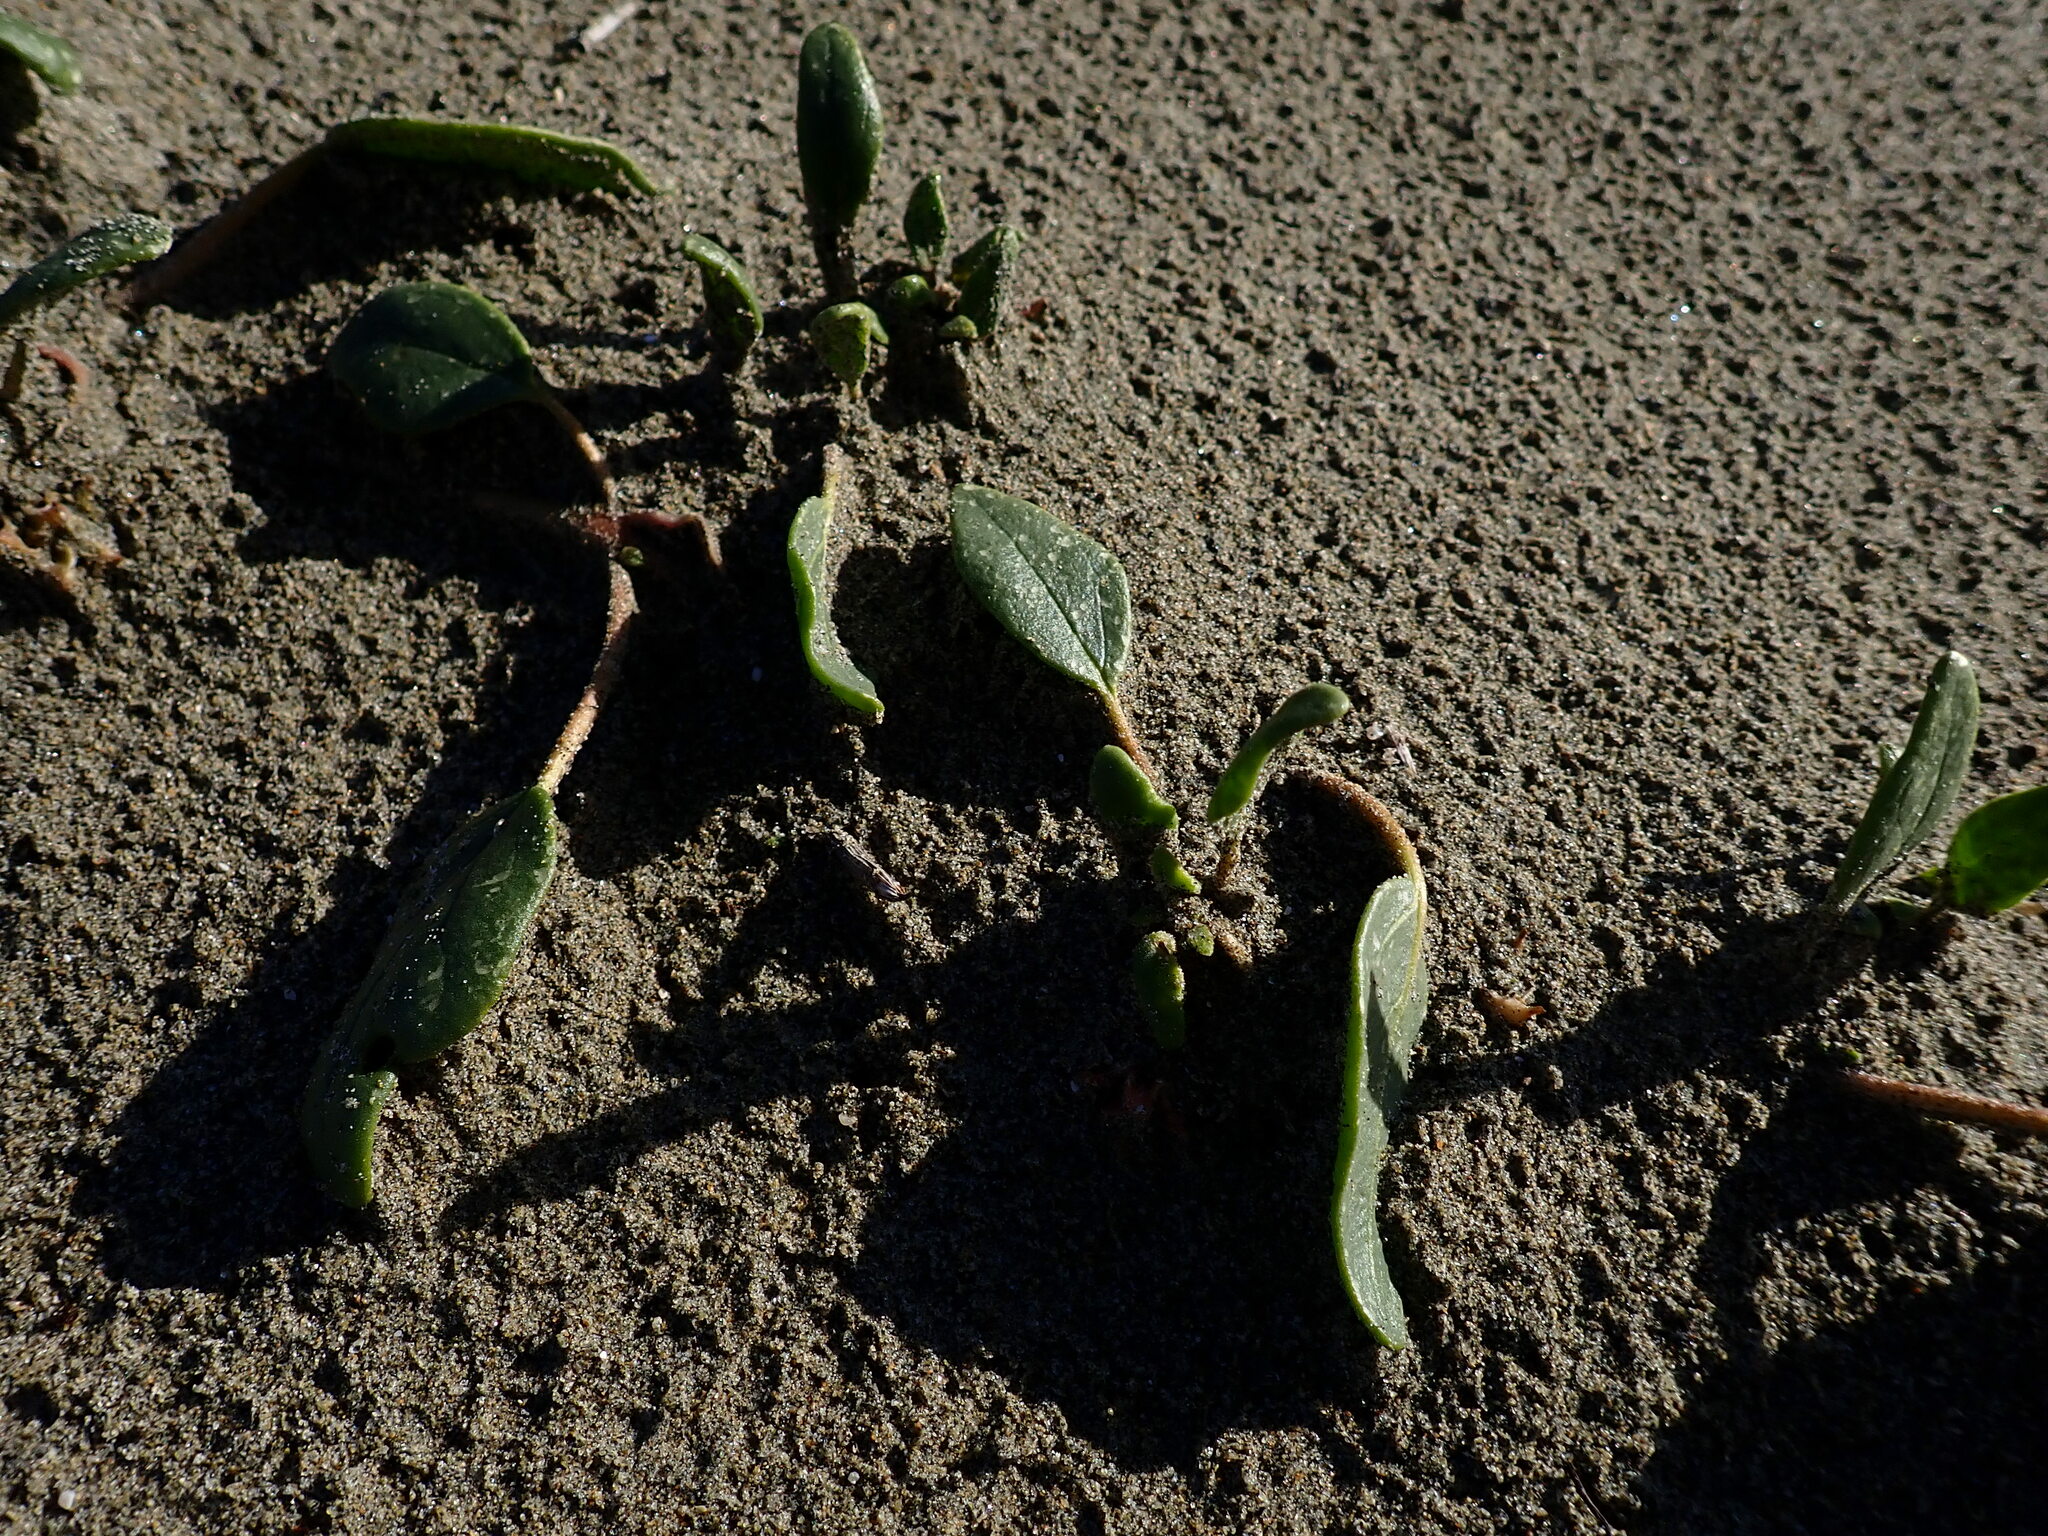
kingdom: Plantae
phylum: Tracheophyta
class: Magnoliopsida
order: Caryophyllales
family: Nyctaginaceae
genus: Abronia
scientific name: Abronia umbellata
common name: Sand-verbena
